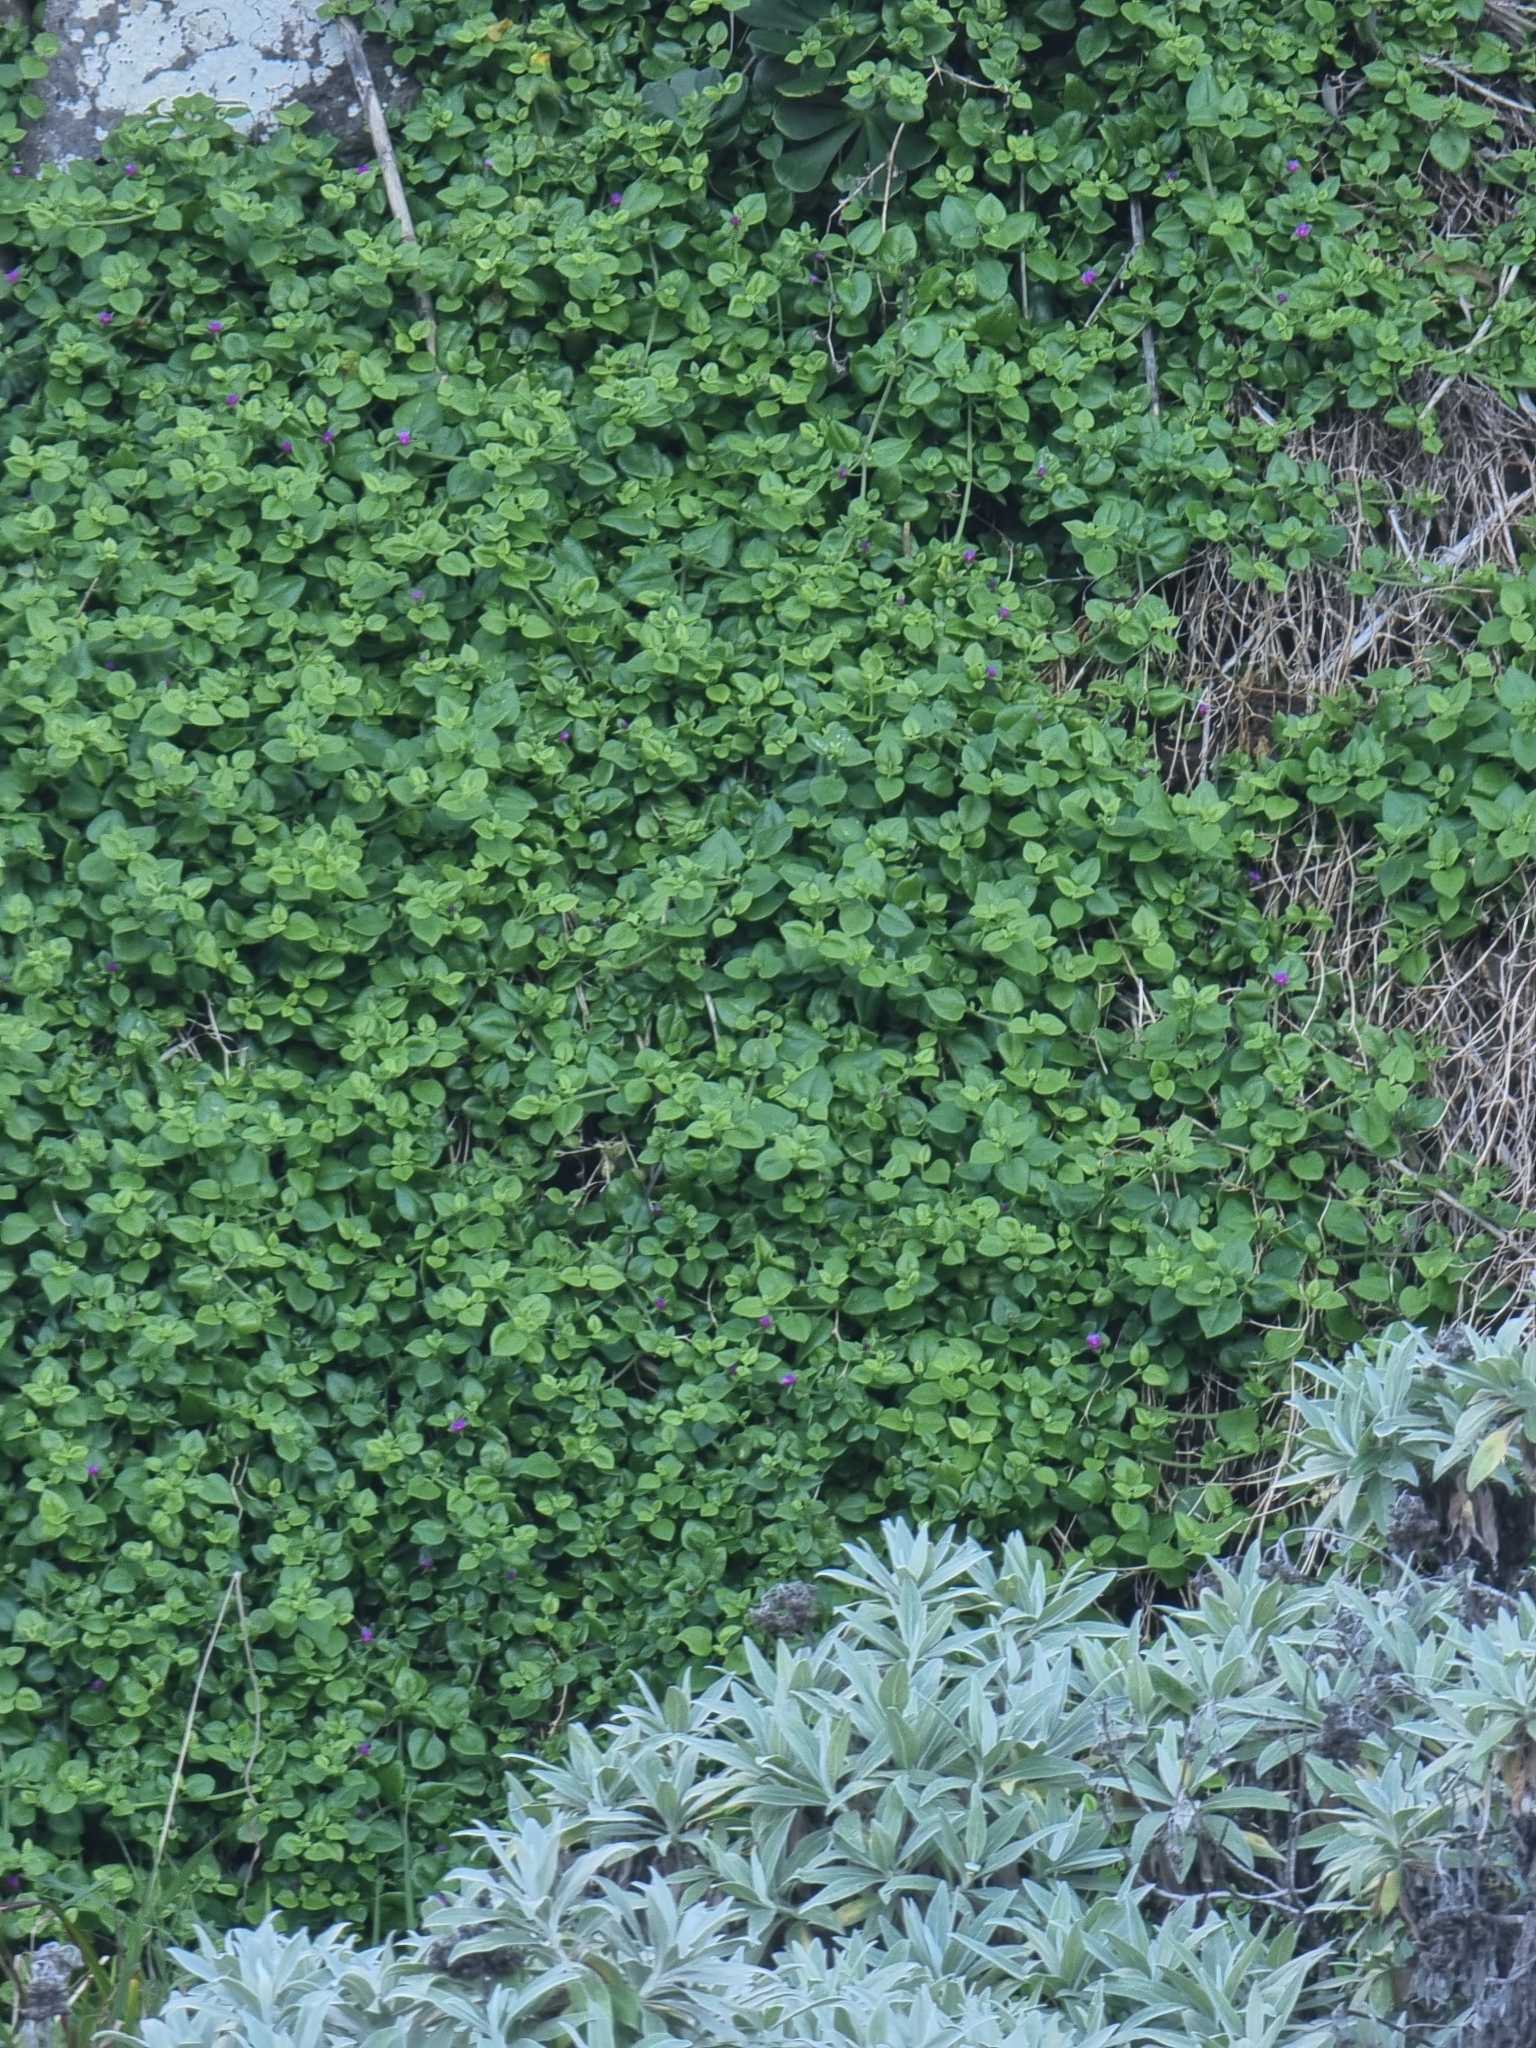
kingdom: Plantae
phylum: Tracheophyta
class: Magnoliopsida
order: Caryophyllales
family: Aizoaceae
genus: Mesembryanthemum
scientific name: Mesembryanthemum cordifolium
